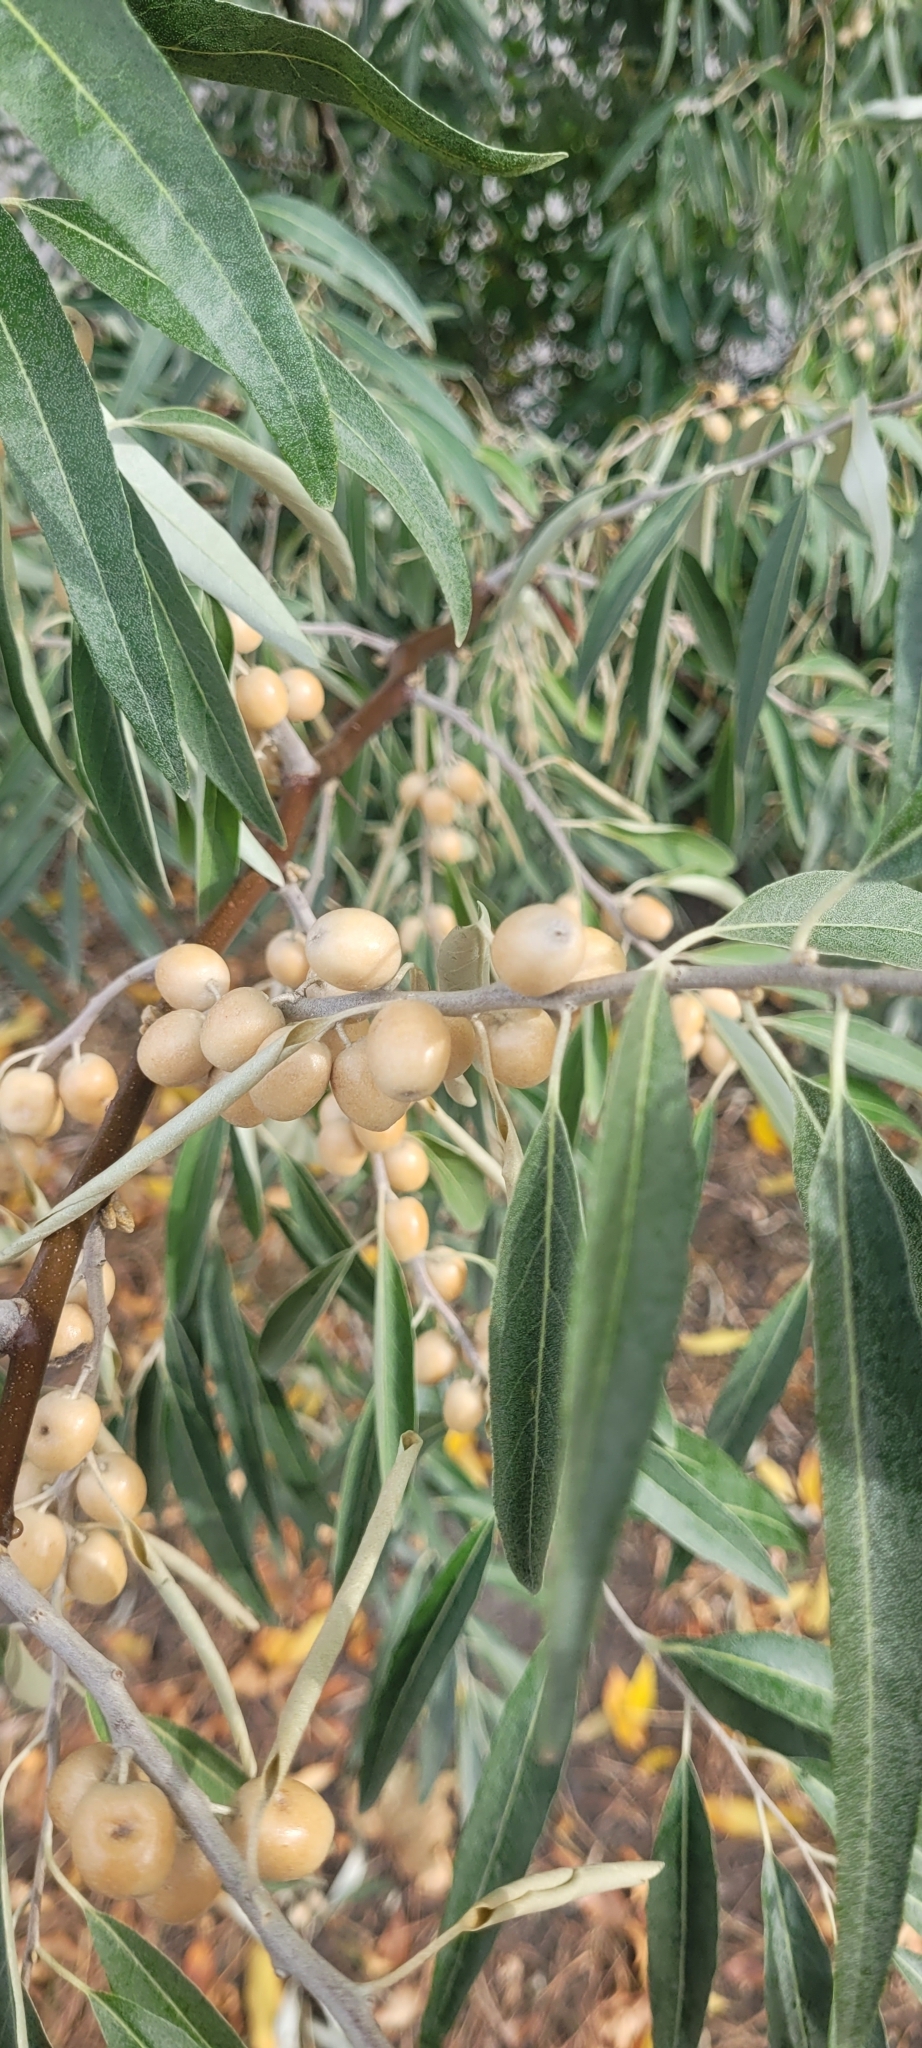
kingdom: Plantae
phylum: Tracheophyta
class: Magnoliopsida
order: Rosales
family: Elaeagnaceae
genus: Elaeagnus
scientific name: Elaeagnus angustifolia
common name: Russian olive
